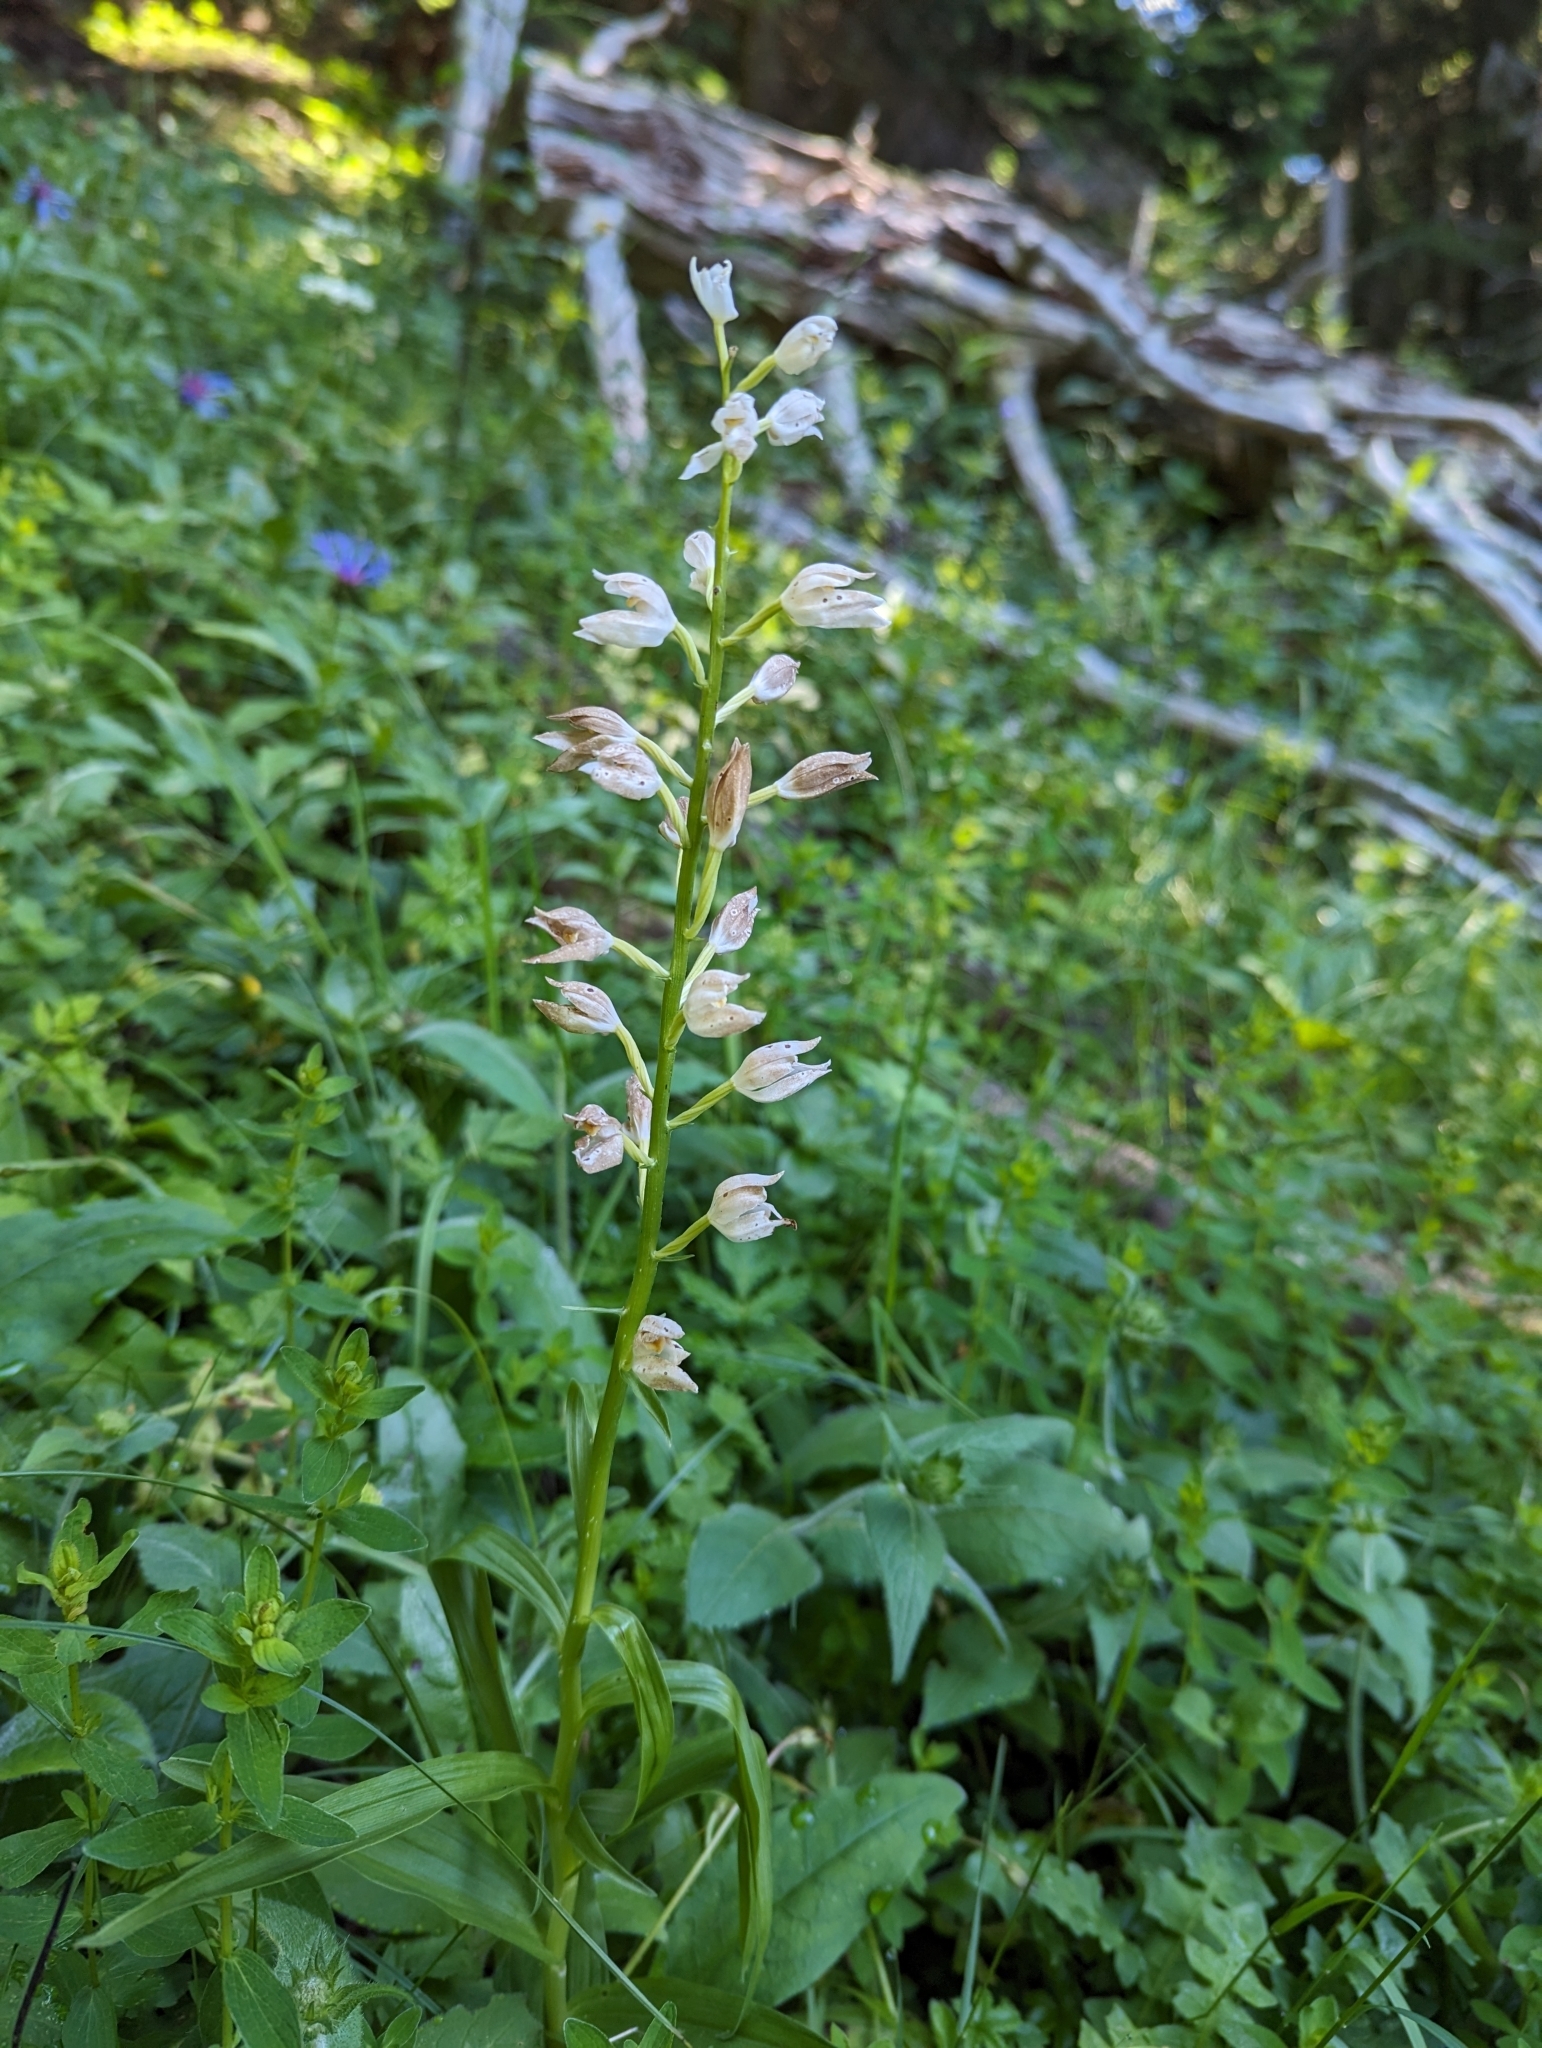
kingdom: Plantae
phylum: Tracheophyta
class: Liliopsida
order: Asparagales
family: Orchidaceae
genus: Cephalanthera
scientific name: Cephalanthera longifolia
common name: Narrow-leaved helleborine
